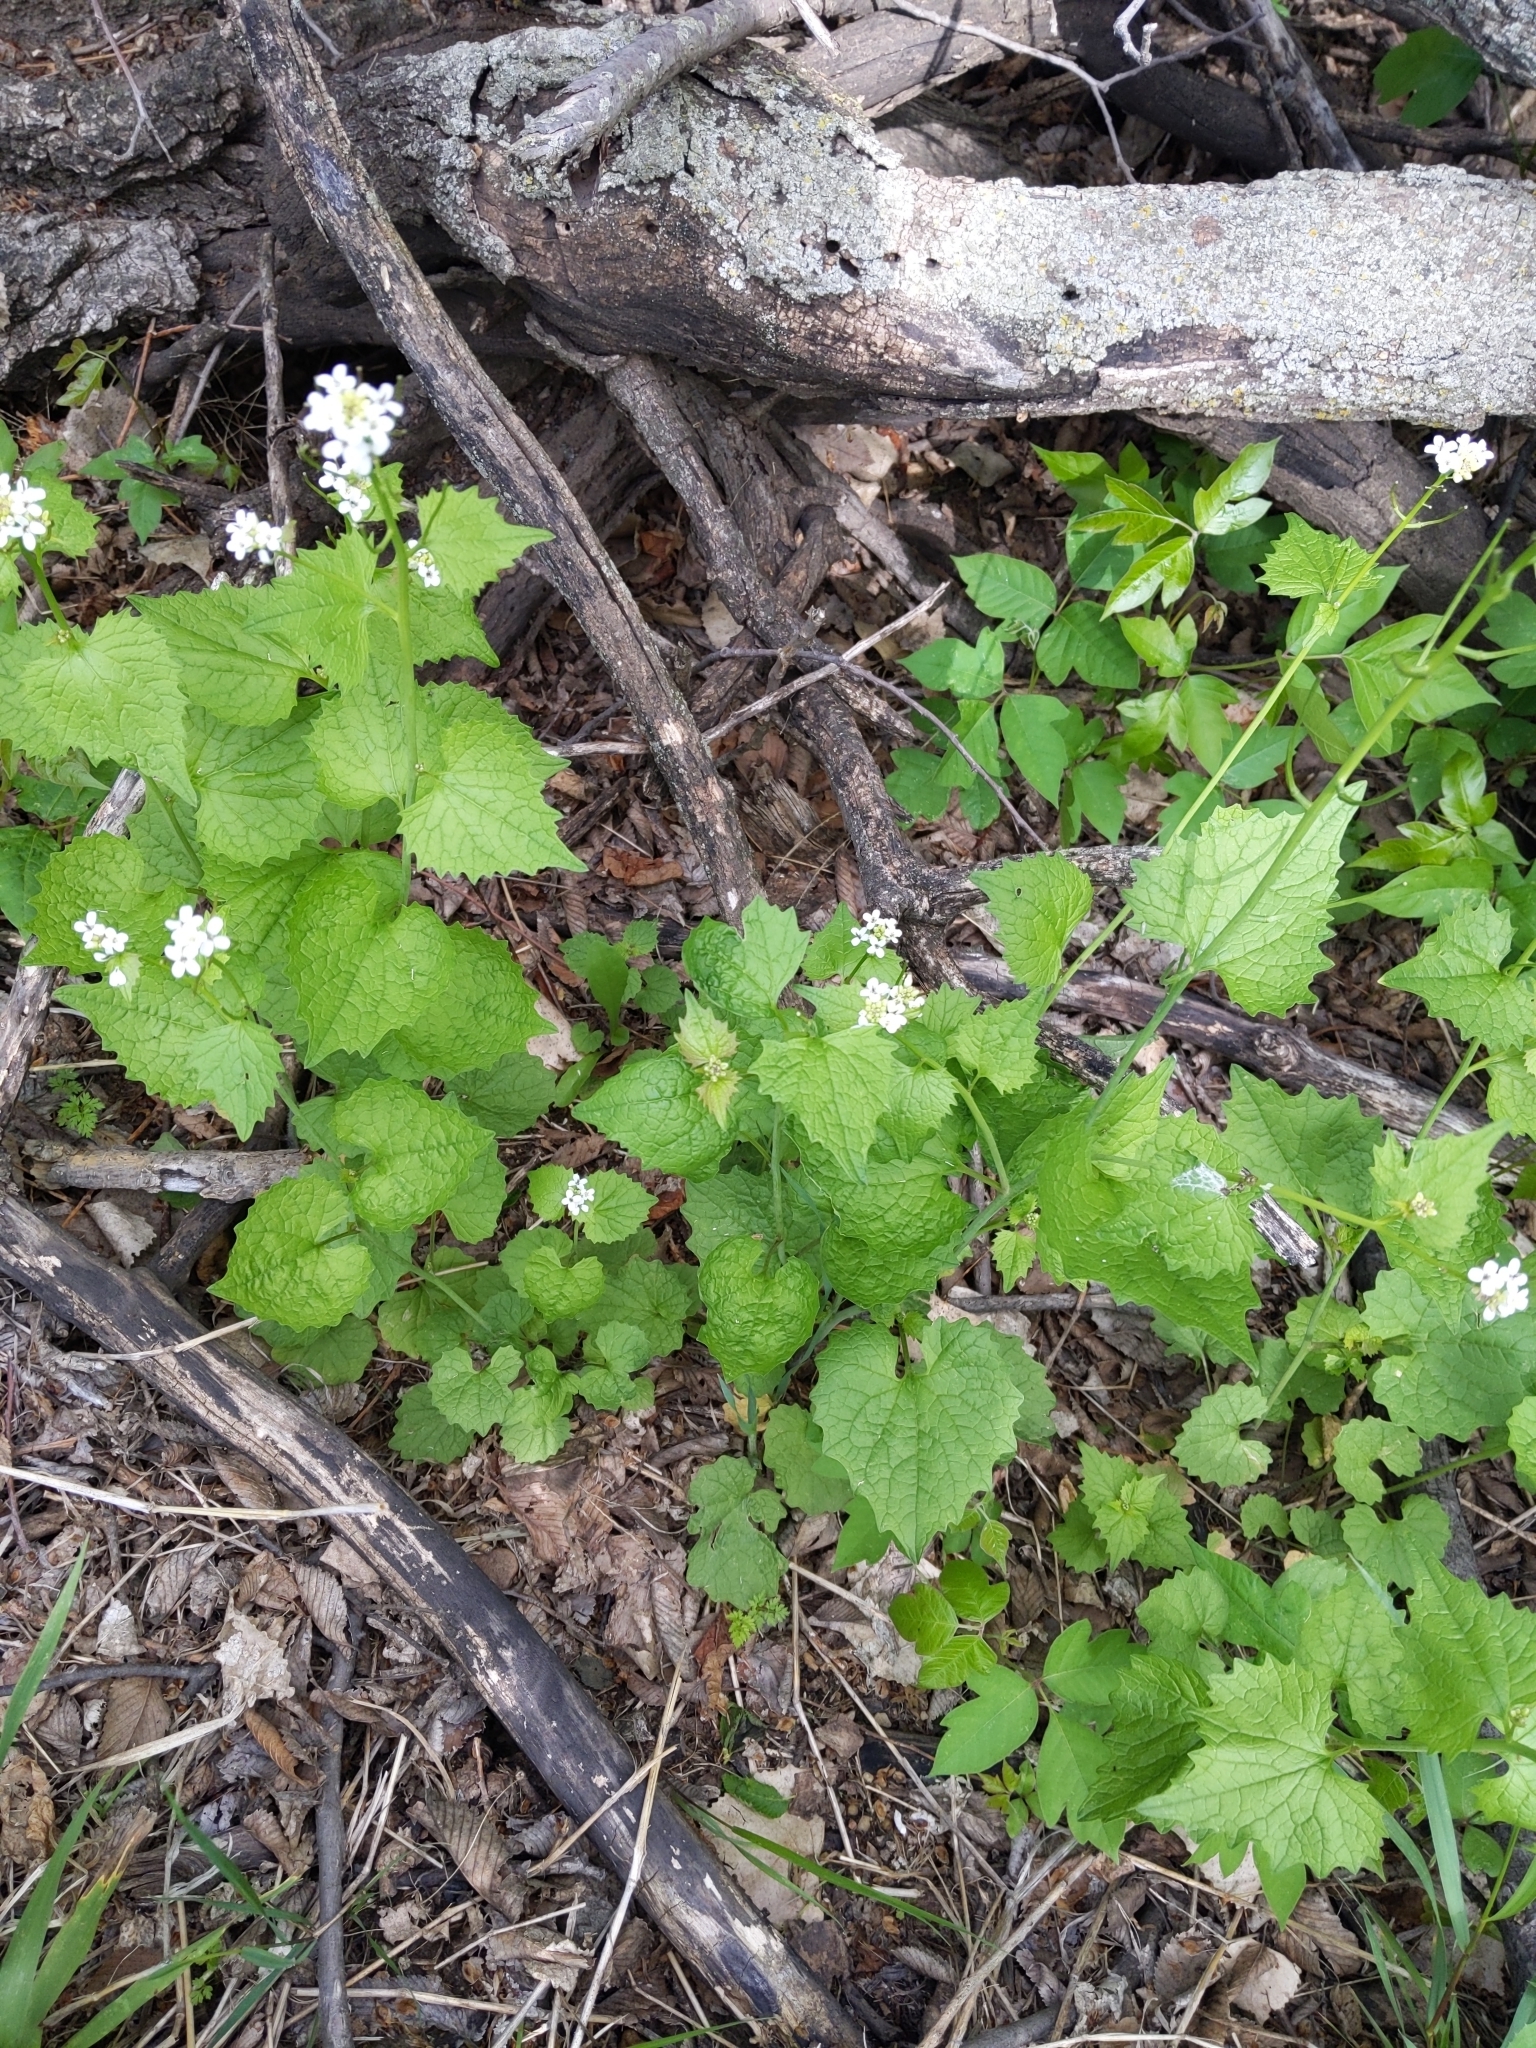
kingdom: Plantae
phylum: Tracheophyta
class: Magnoliopsida
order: Brassicales
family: Brassicaceae
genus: Alliaria
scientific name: Alliaria petiolata
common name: Garlic mustard
